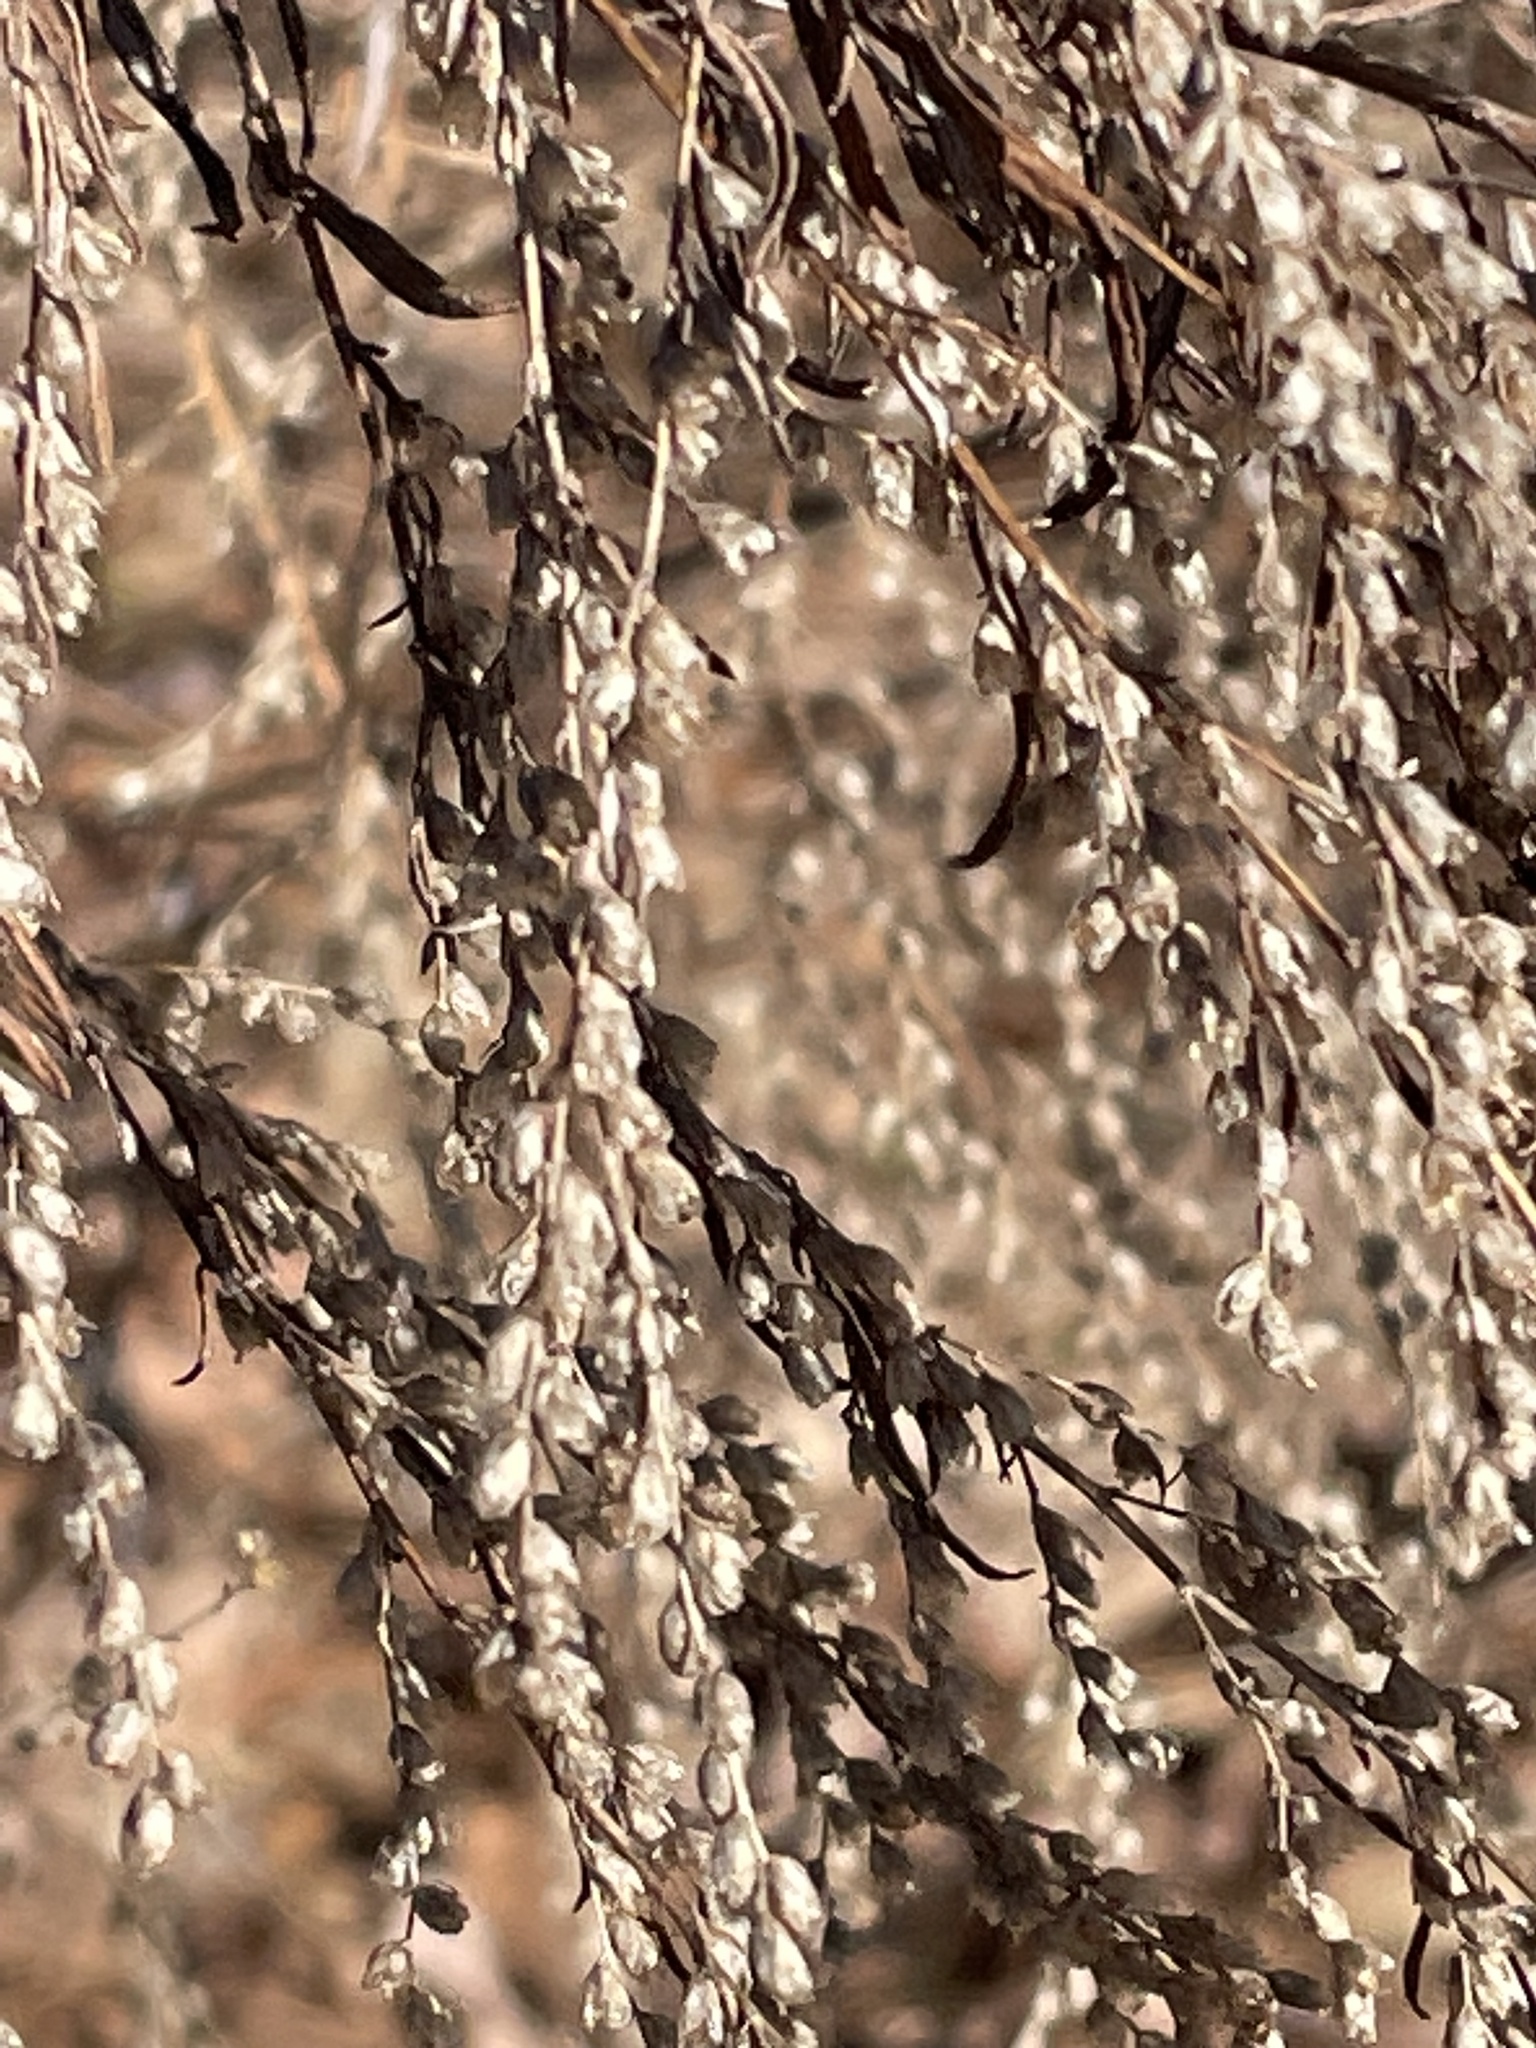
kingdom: Plantae
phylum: Tracheophyta
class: Magnoliopsida
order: Asterales
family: Asteraceae
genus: Artemisia
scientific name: Artemisia vulgaris
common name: Mugwort
